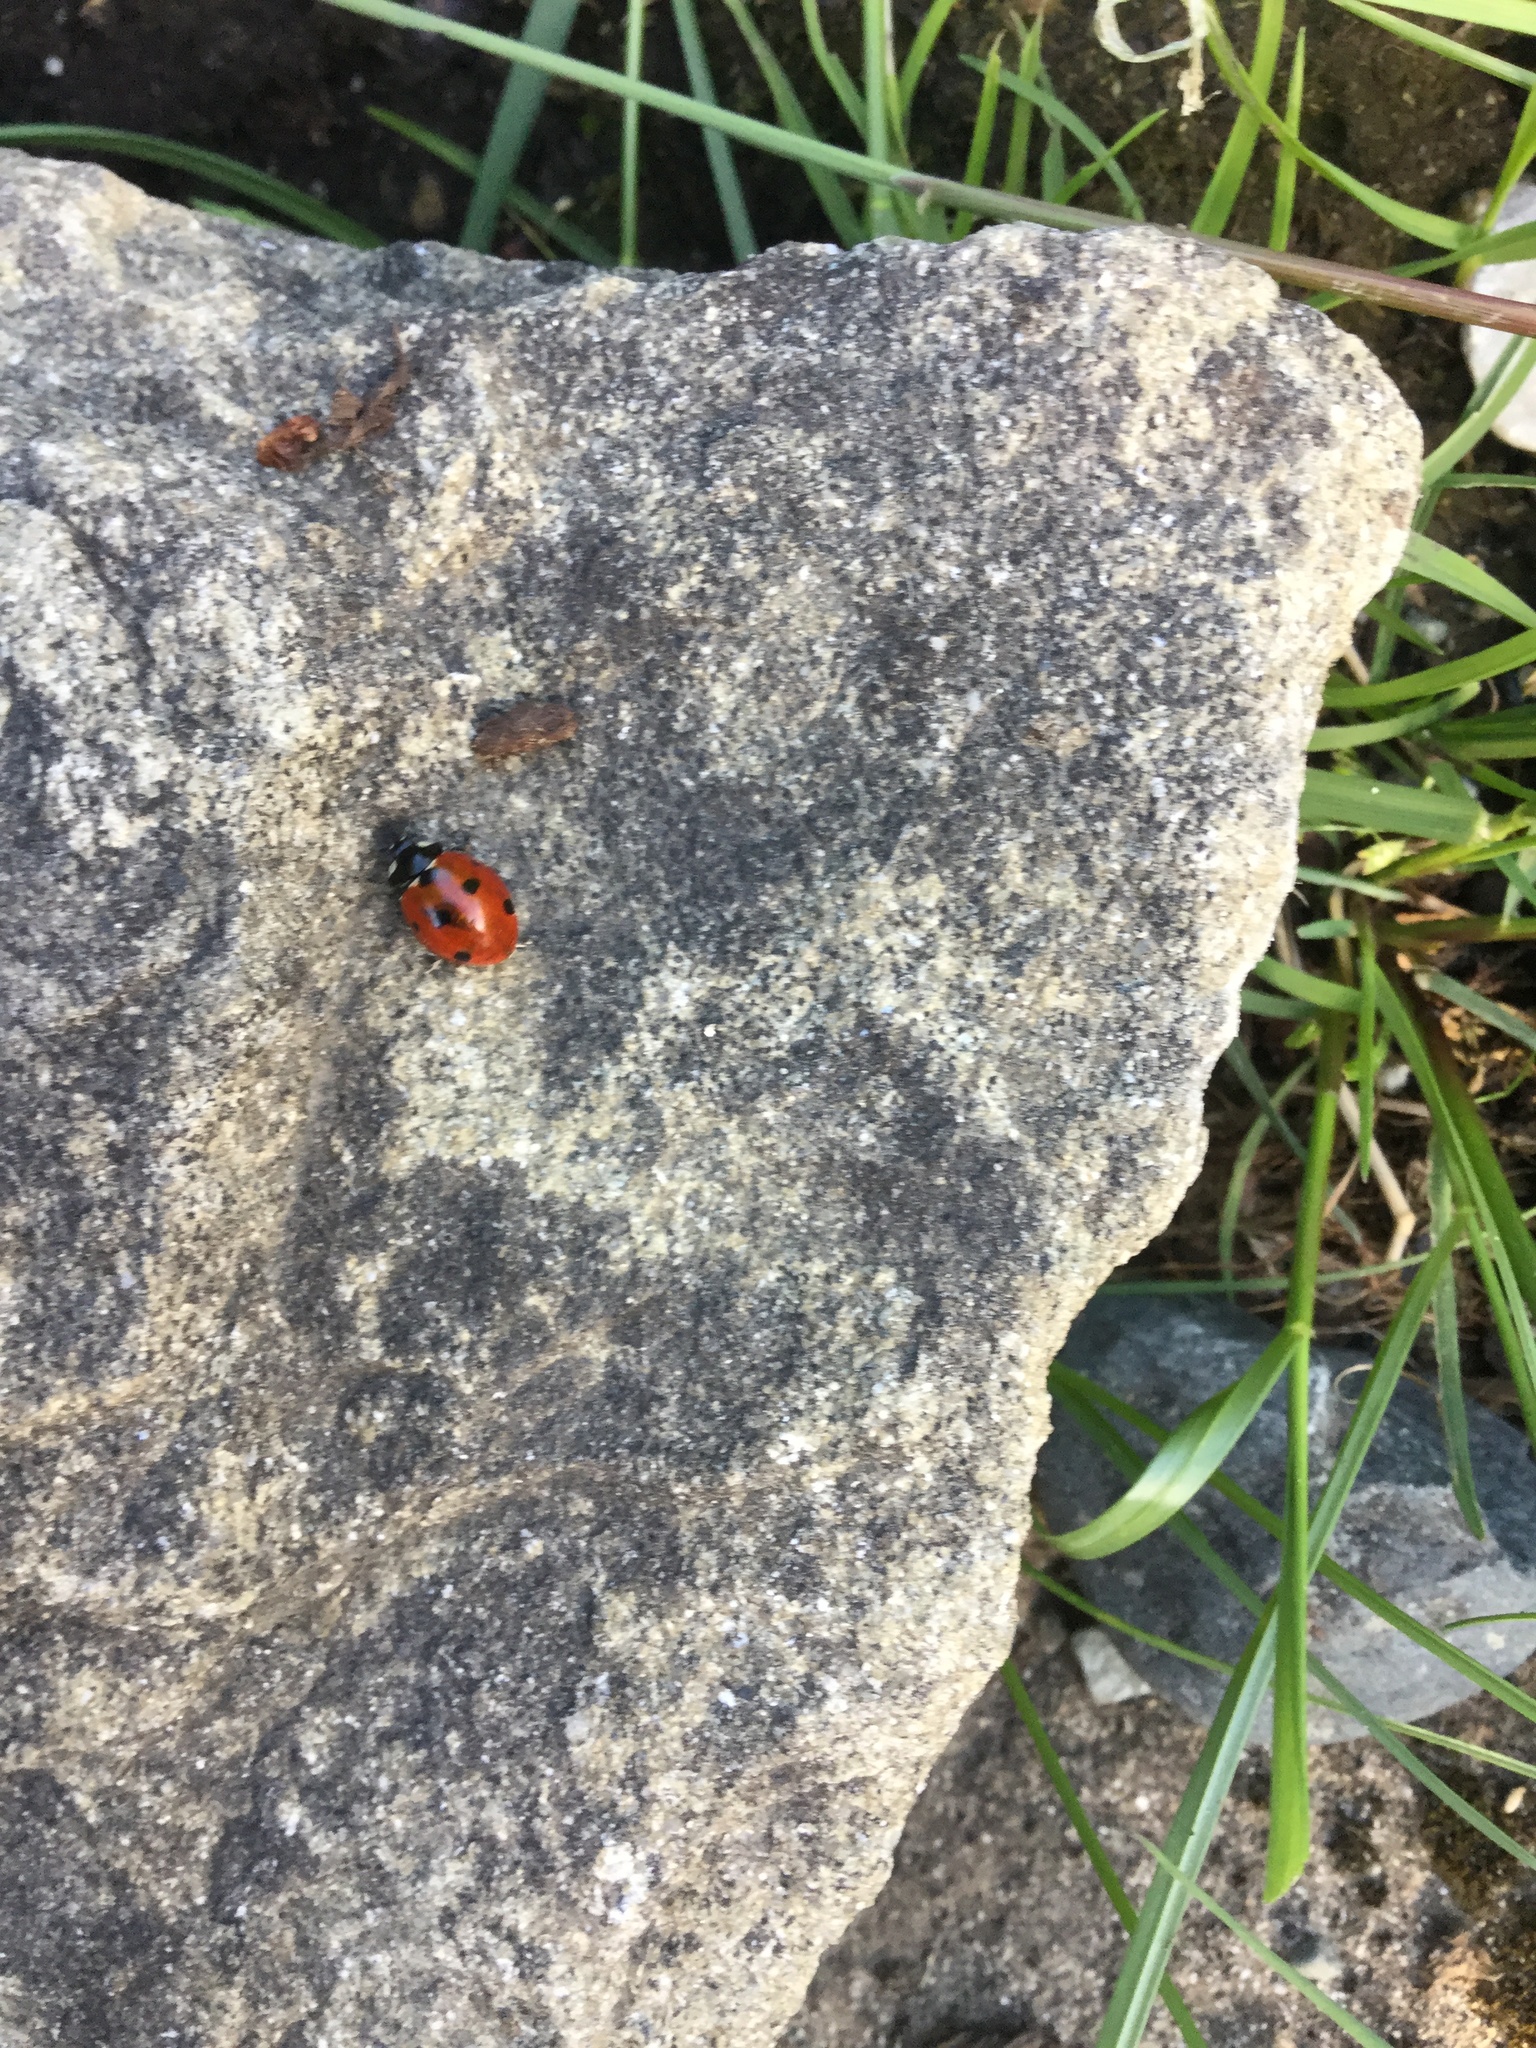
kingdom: Animalia
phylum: Arthropoda
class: Insecta
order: Coleoptera
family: Coccinellidae
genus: Coccinella
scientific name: Coccinella septempunctata
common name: Sevenspotted lady beetle
